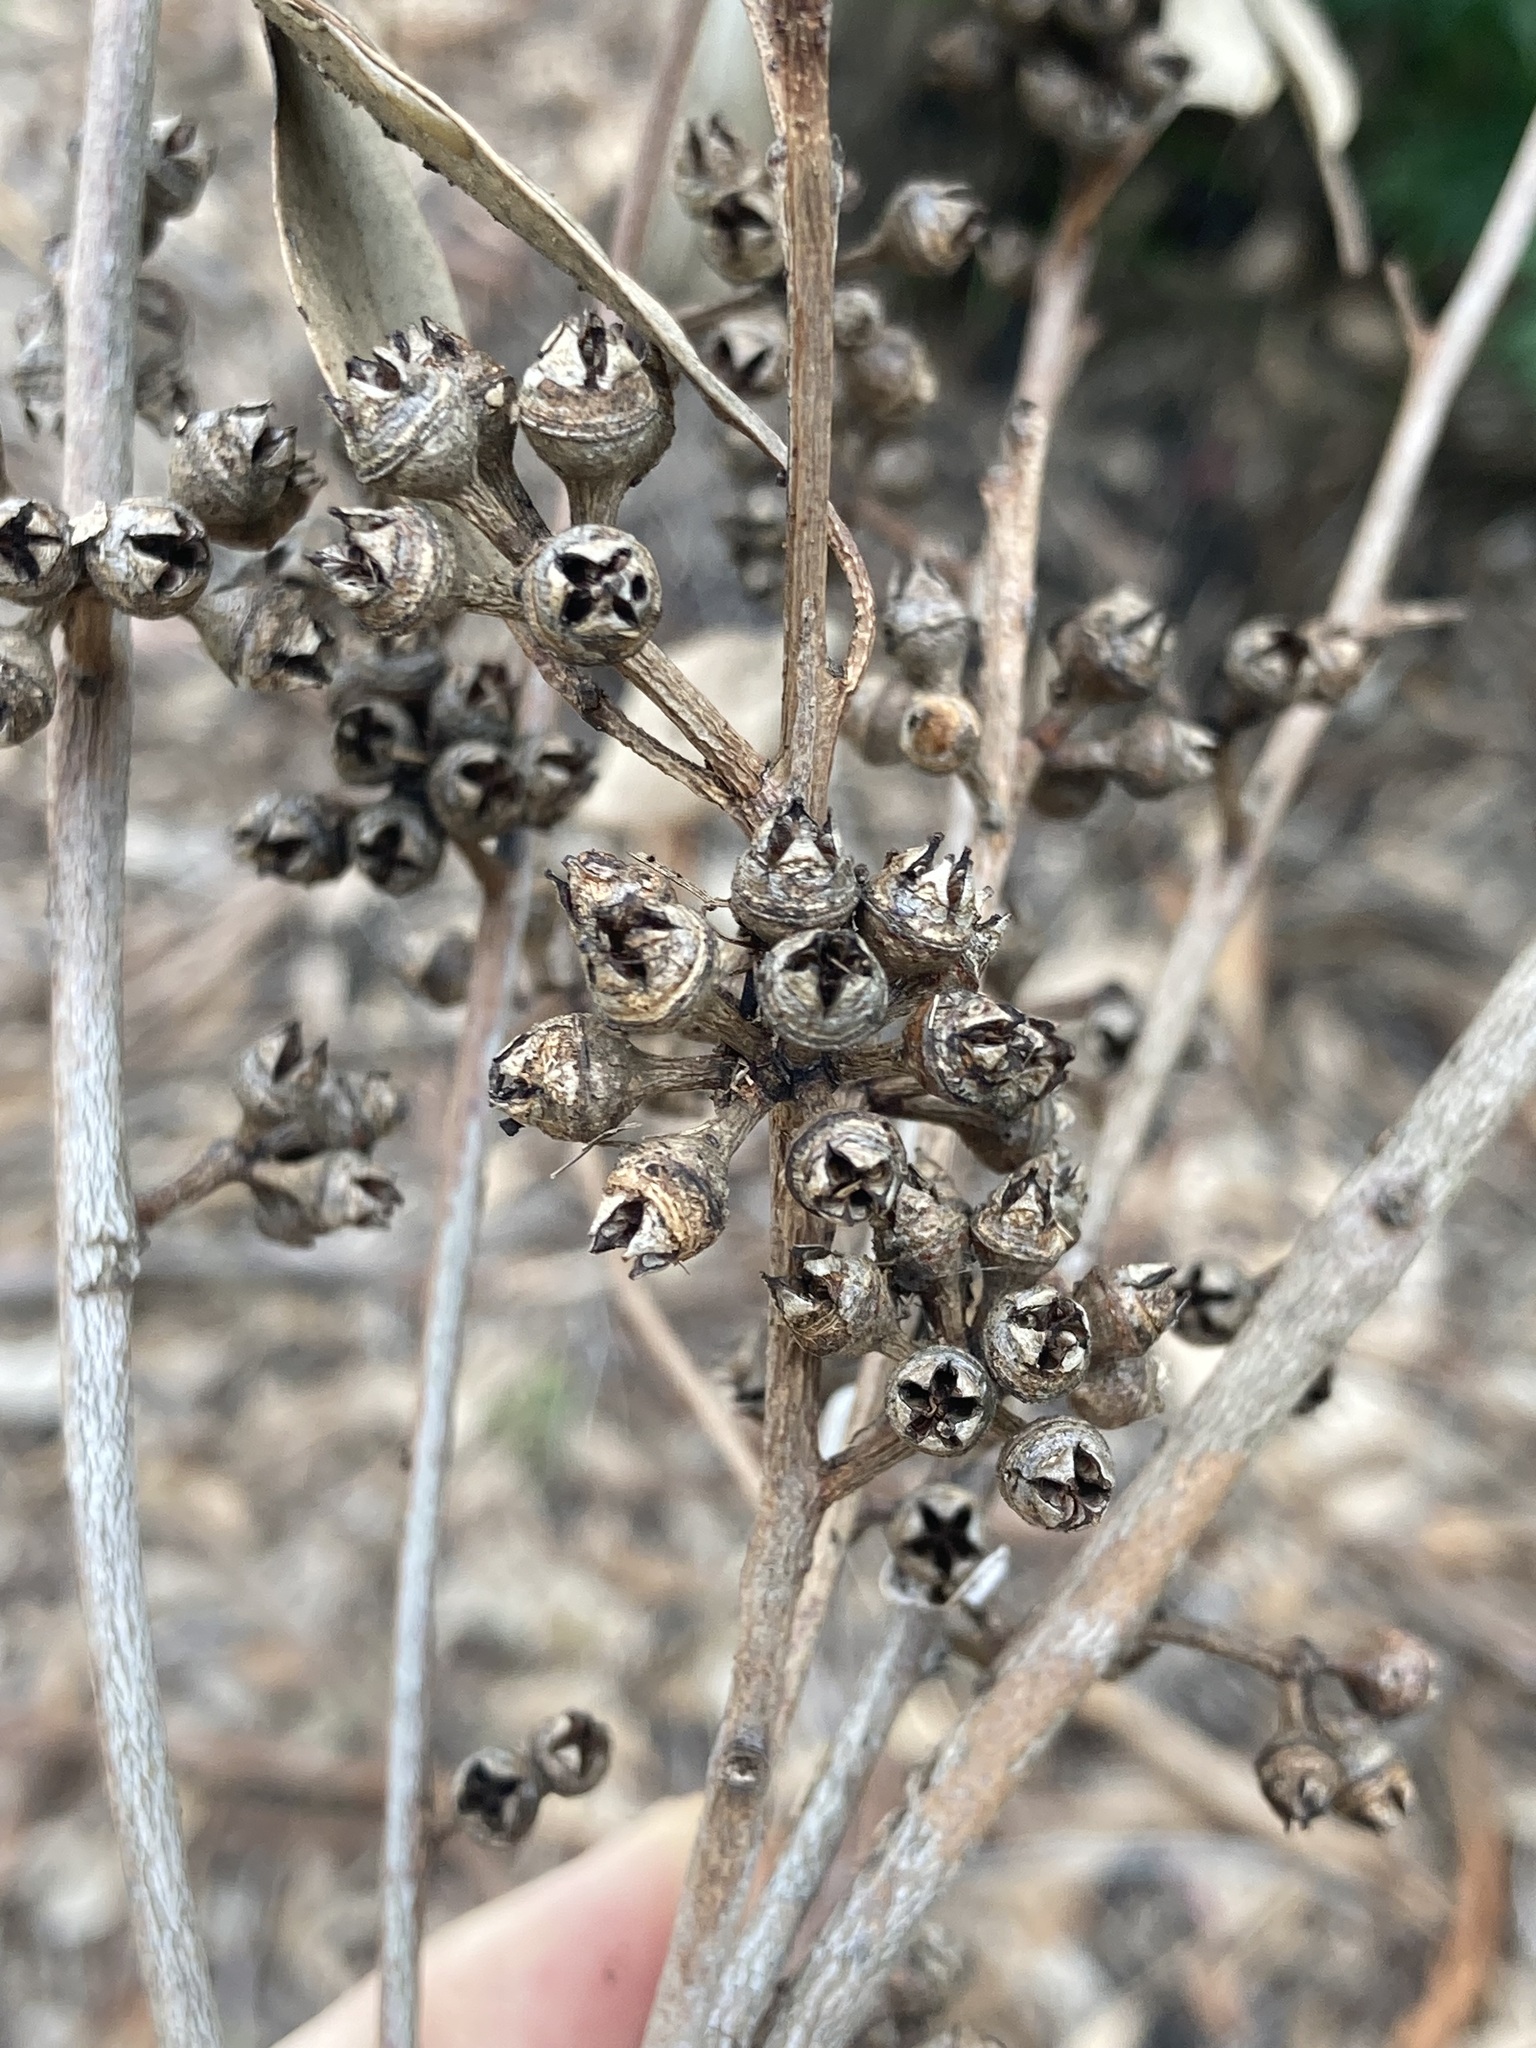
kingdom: Plantae
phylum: Tracheophyta
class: Magnoliopsida
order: Myrtales
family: Myrtaceae
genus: Eucalyptus
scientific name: Eucalyptus amplifolia
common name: Cabbage gum
